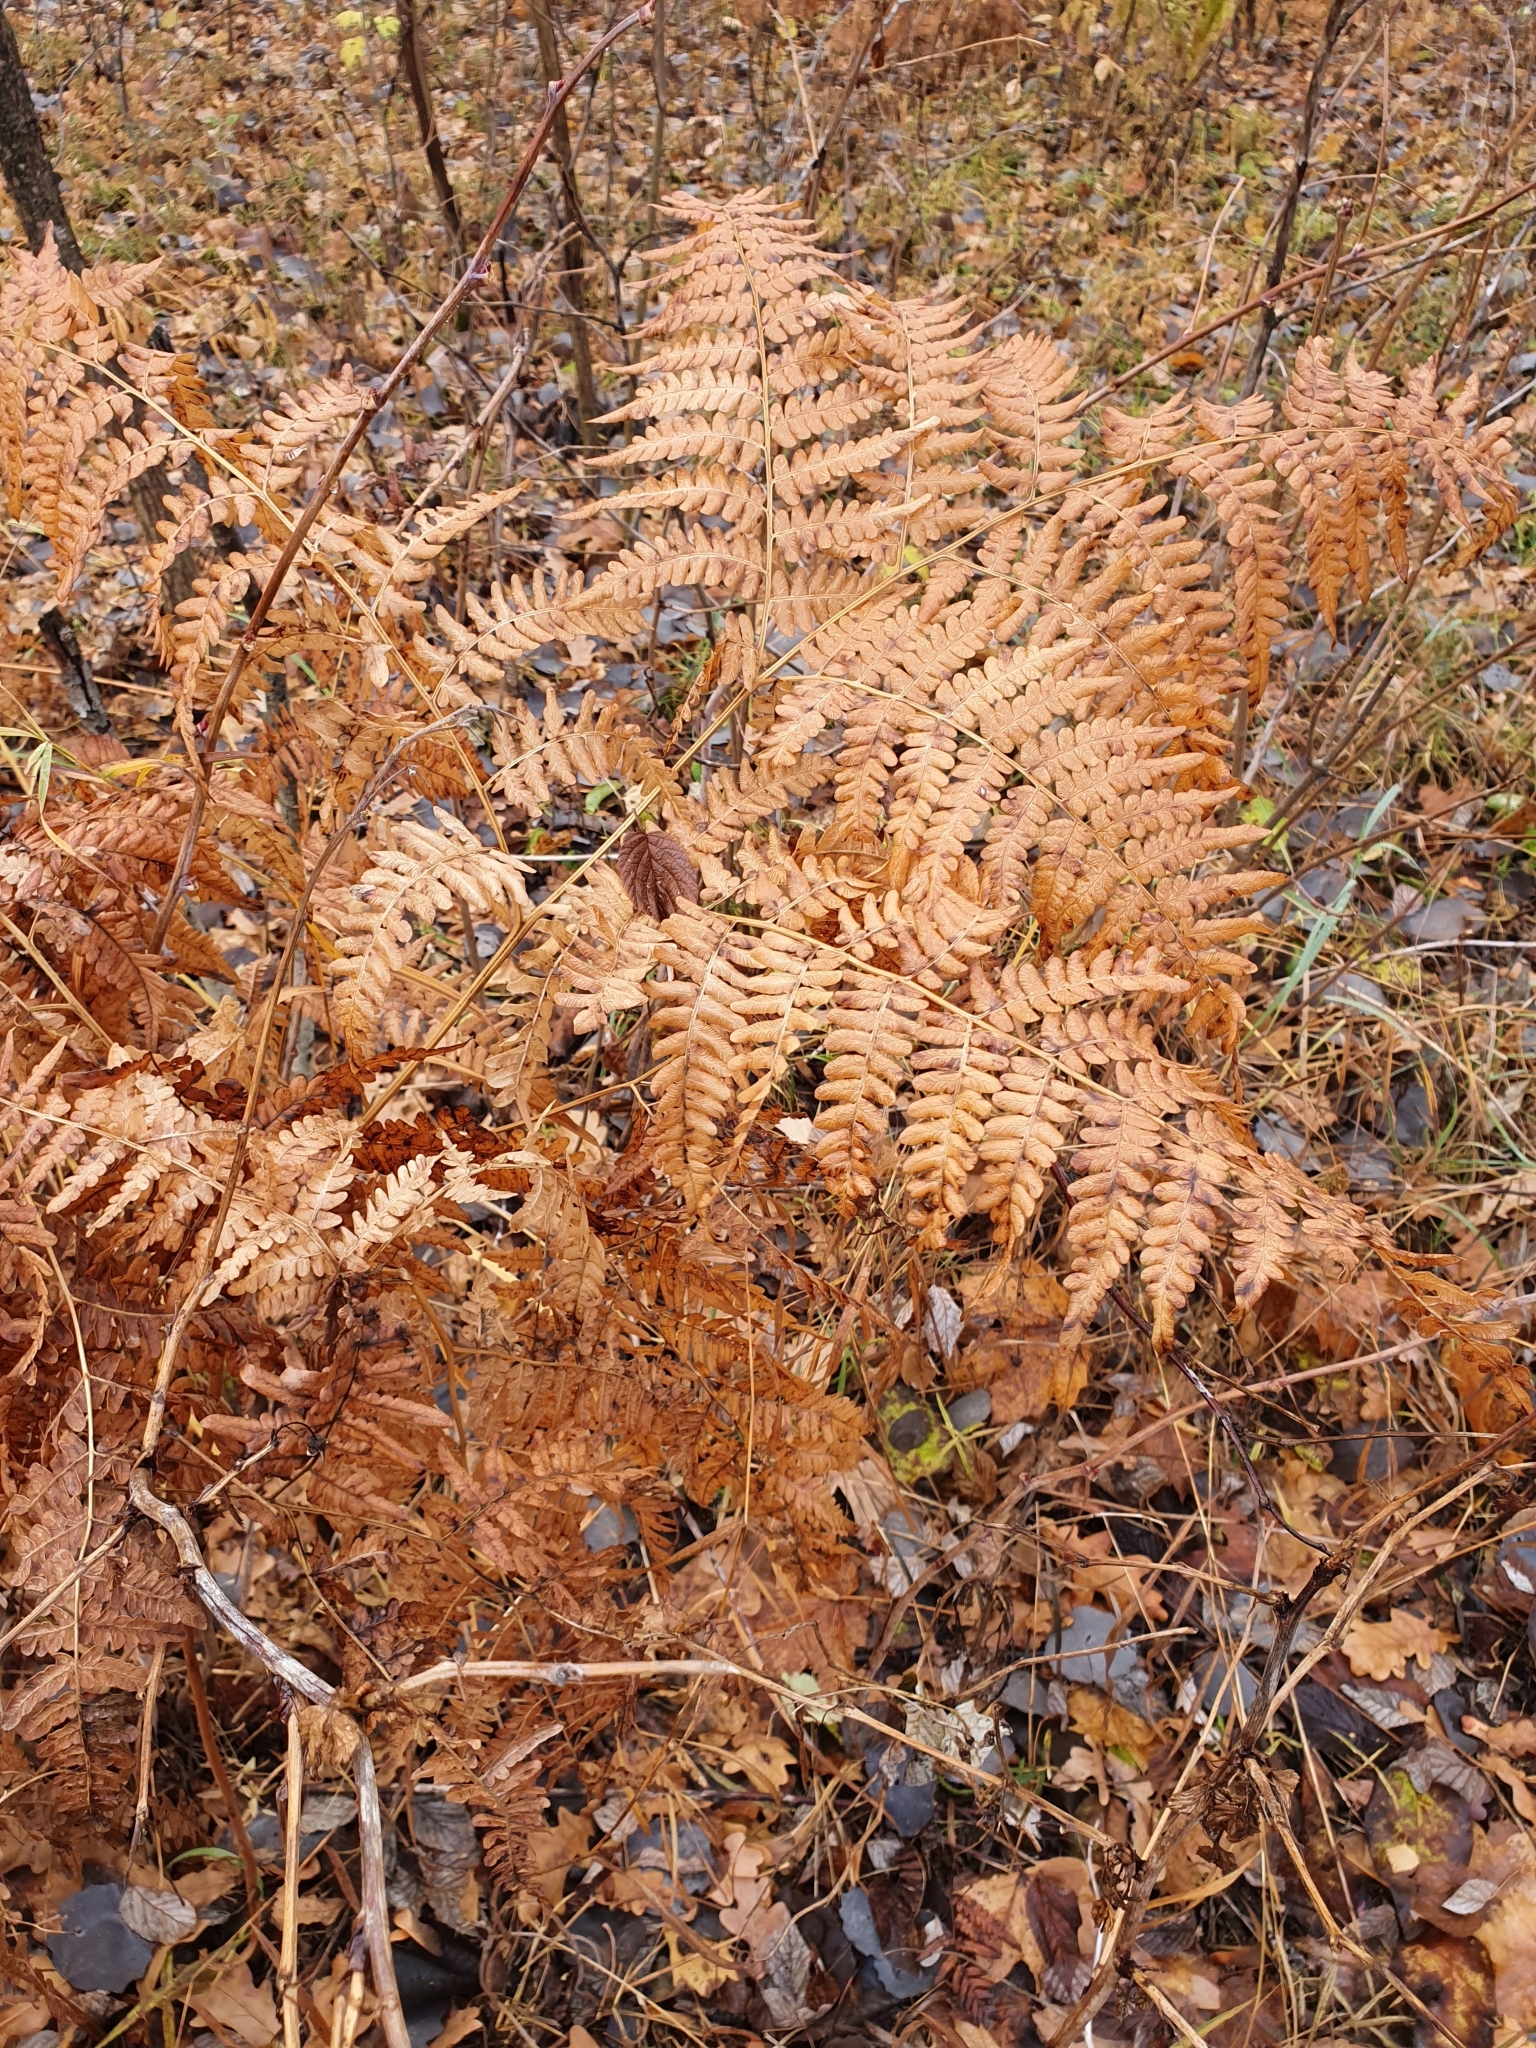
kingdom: Plantae
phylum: Tracheophyta
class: Polypodiopsida
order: Polypodiales
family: Dennstaedtiaceae
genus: Pteridium
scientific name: Pteridium aquilinum
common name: Bracken
